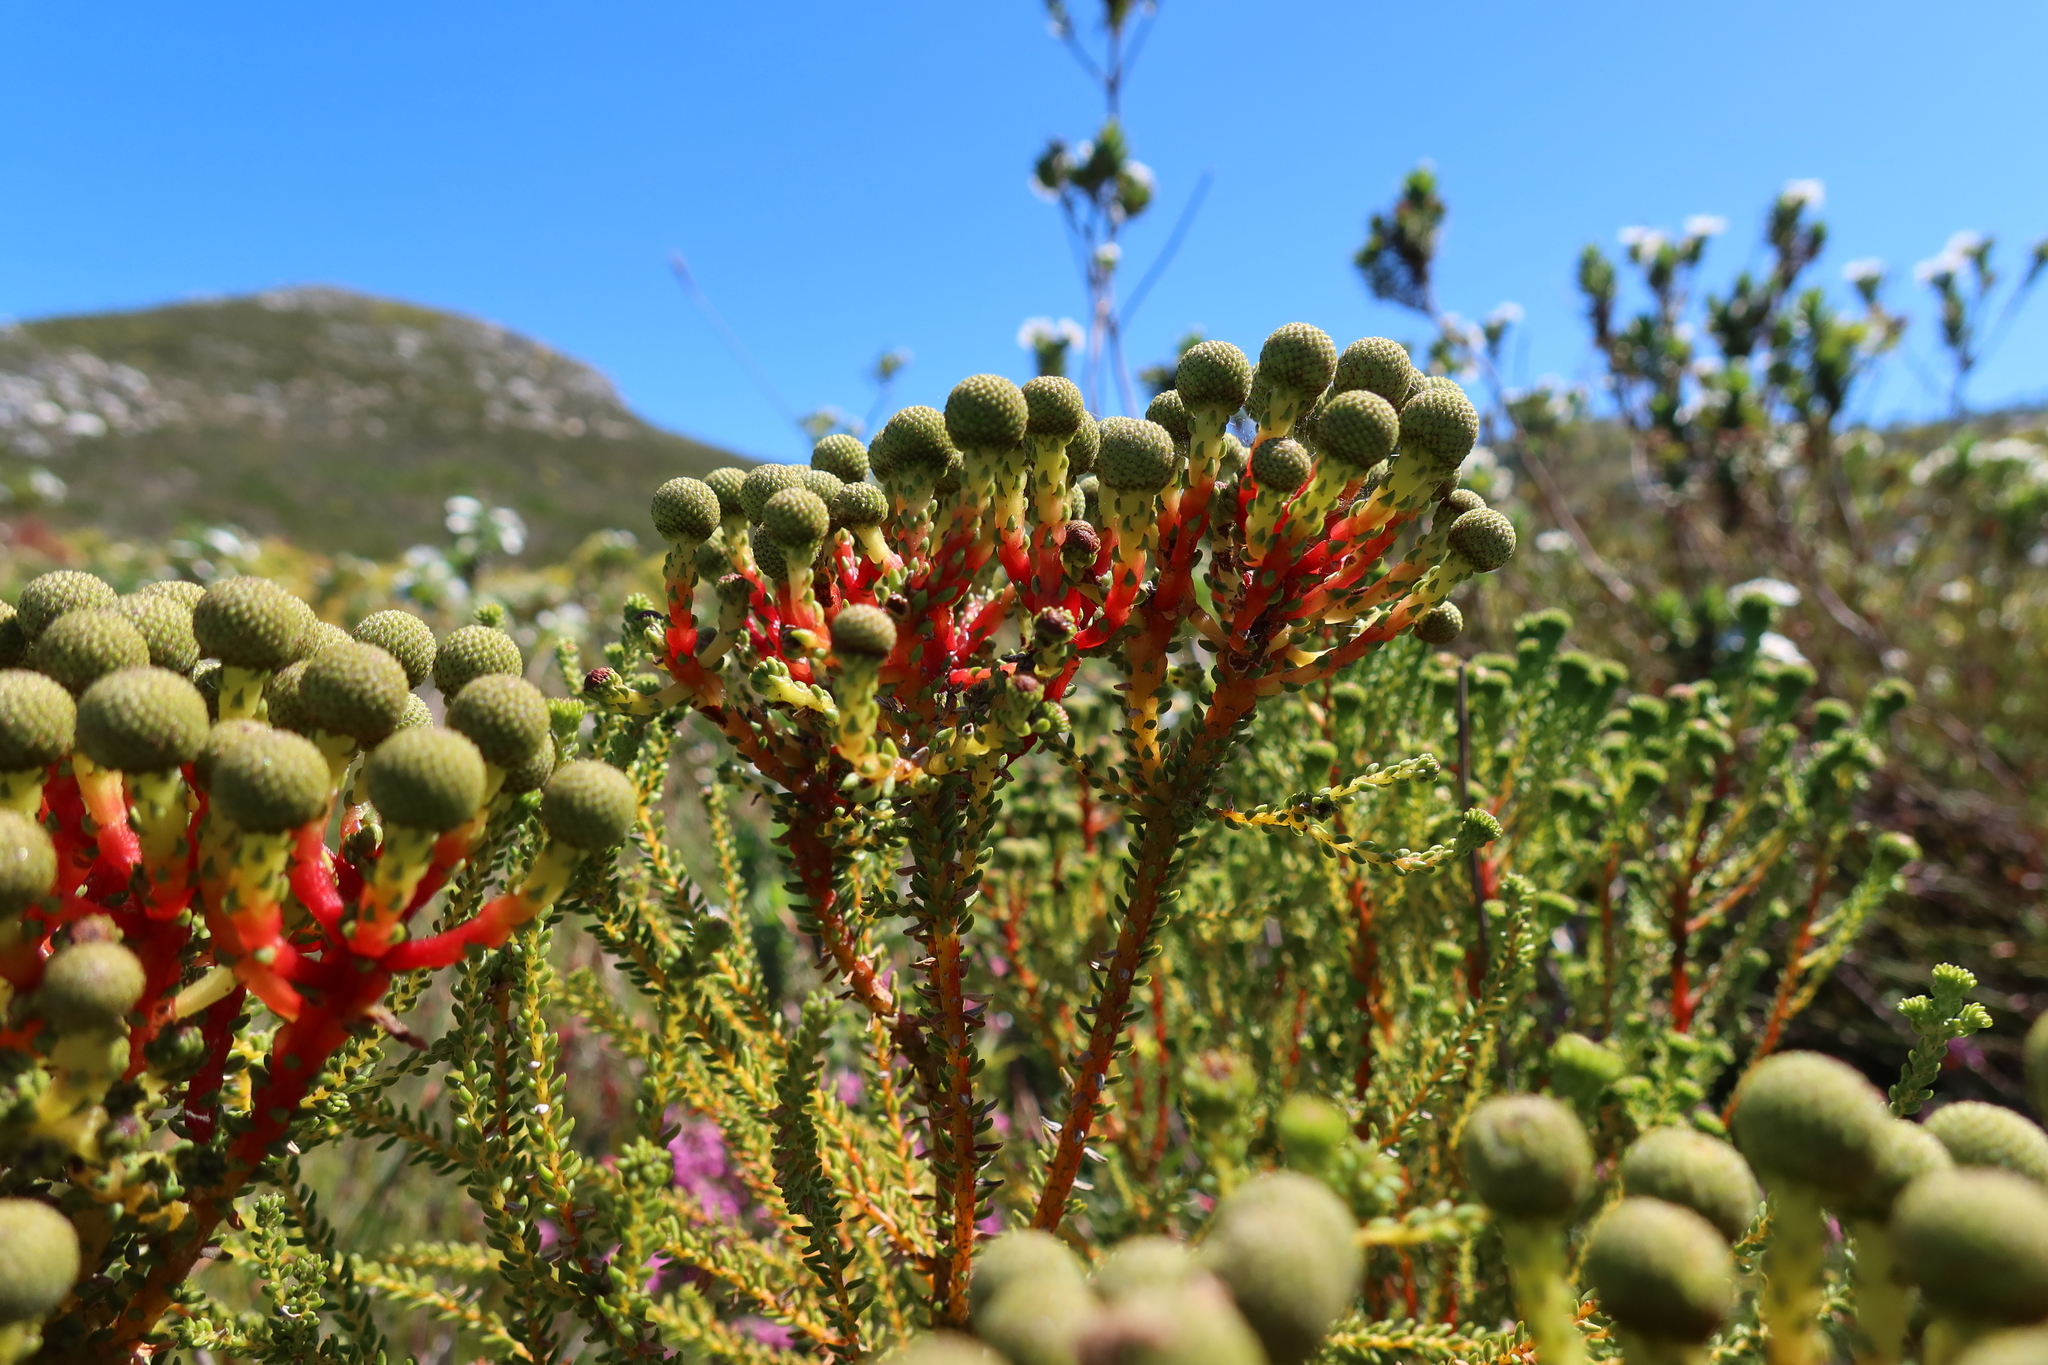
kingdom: Plantae
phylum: Tracheophyta
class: Magnoliopsida
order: Bruniales
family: Bruniaceae
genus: Berzelia
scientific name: Berzelia abrotanoides
